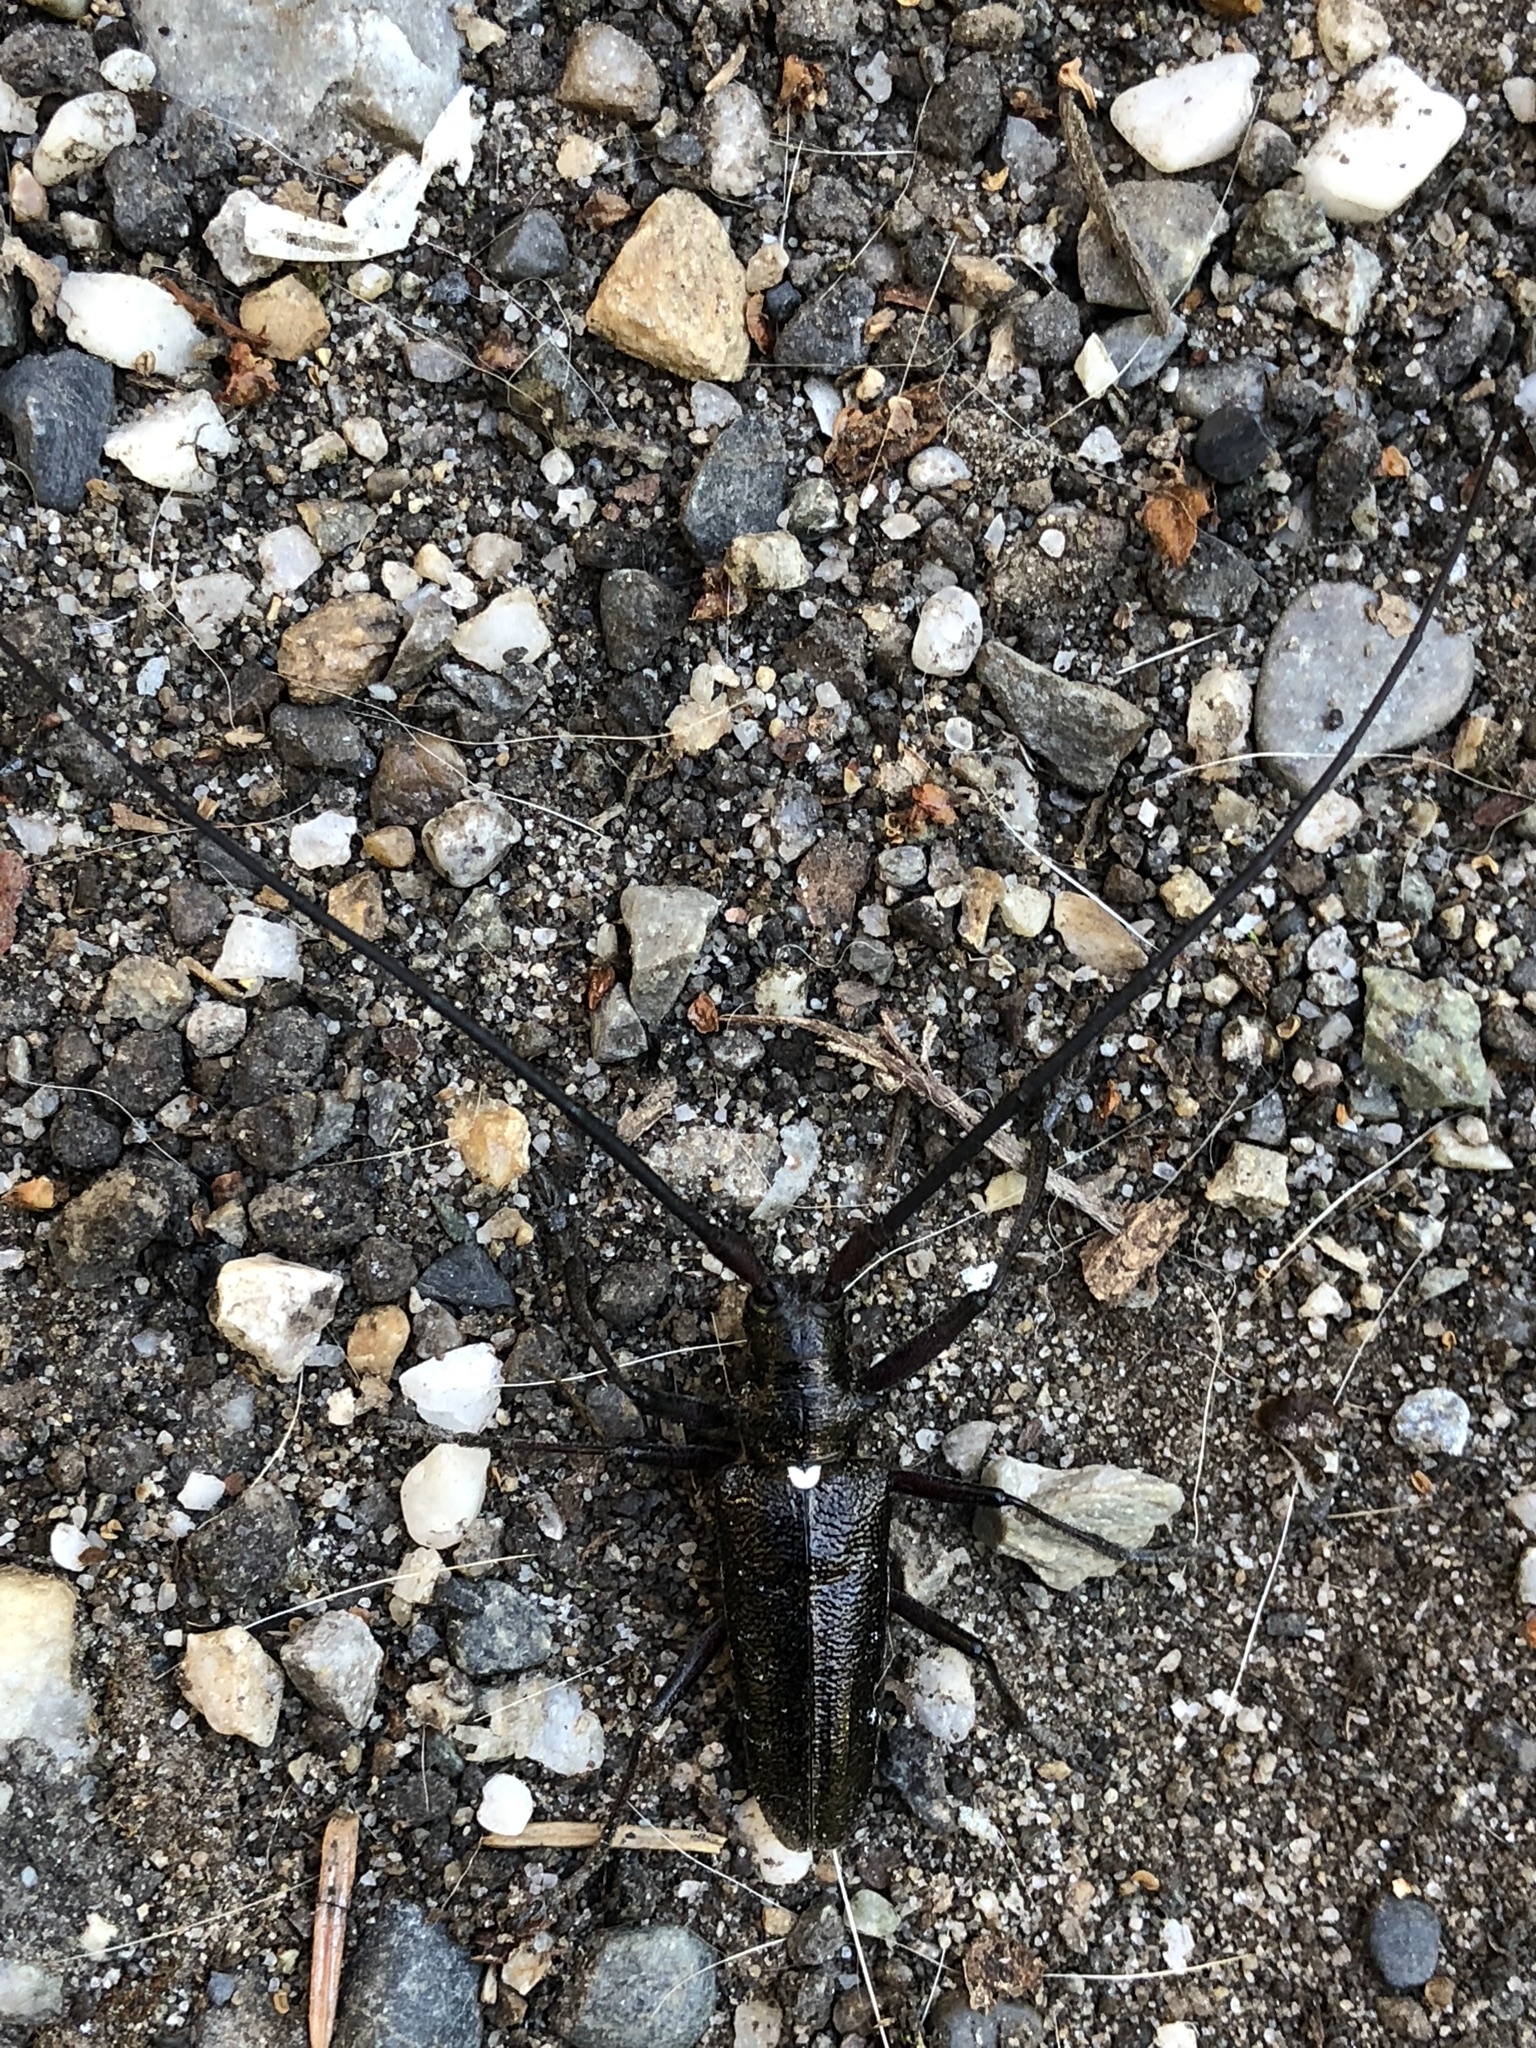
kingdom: Animalia
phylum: Arthropoda
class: Insecta
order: Coleoptera
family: Cerambycidae
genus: Monochamus
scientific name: Monochamus scutellatus
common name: White-spotted sawyer beetle
